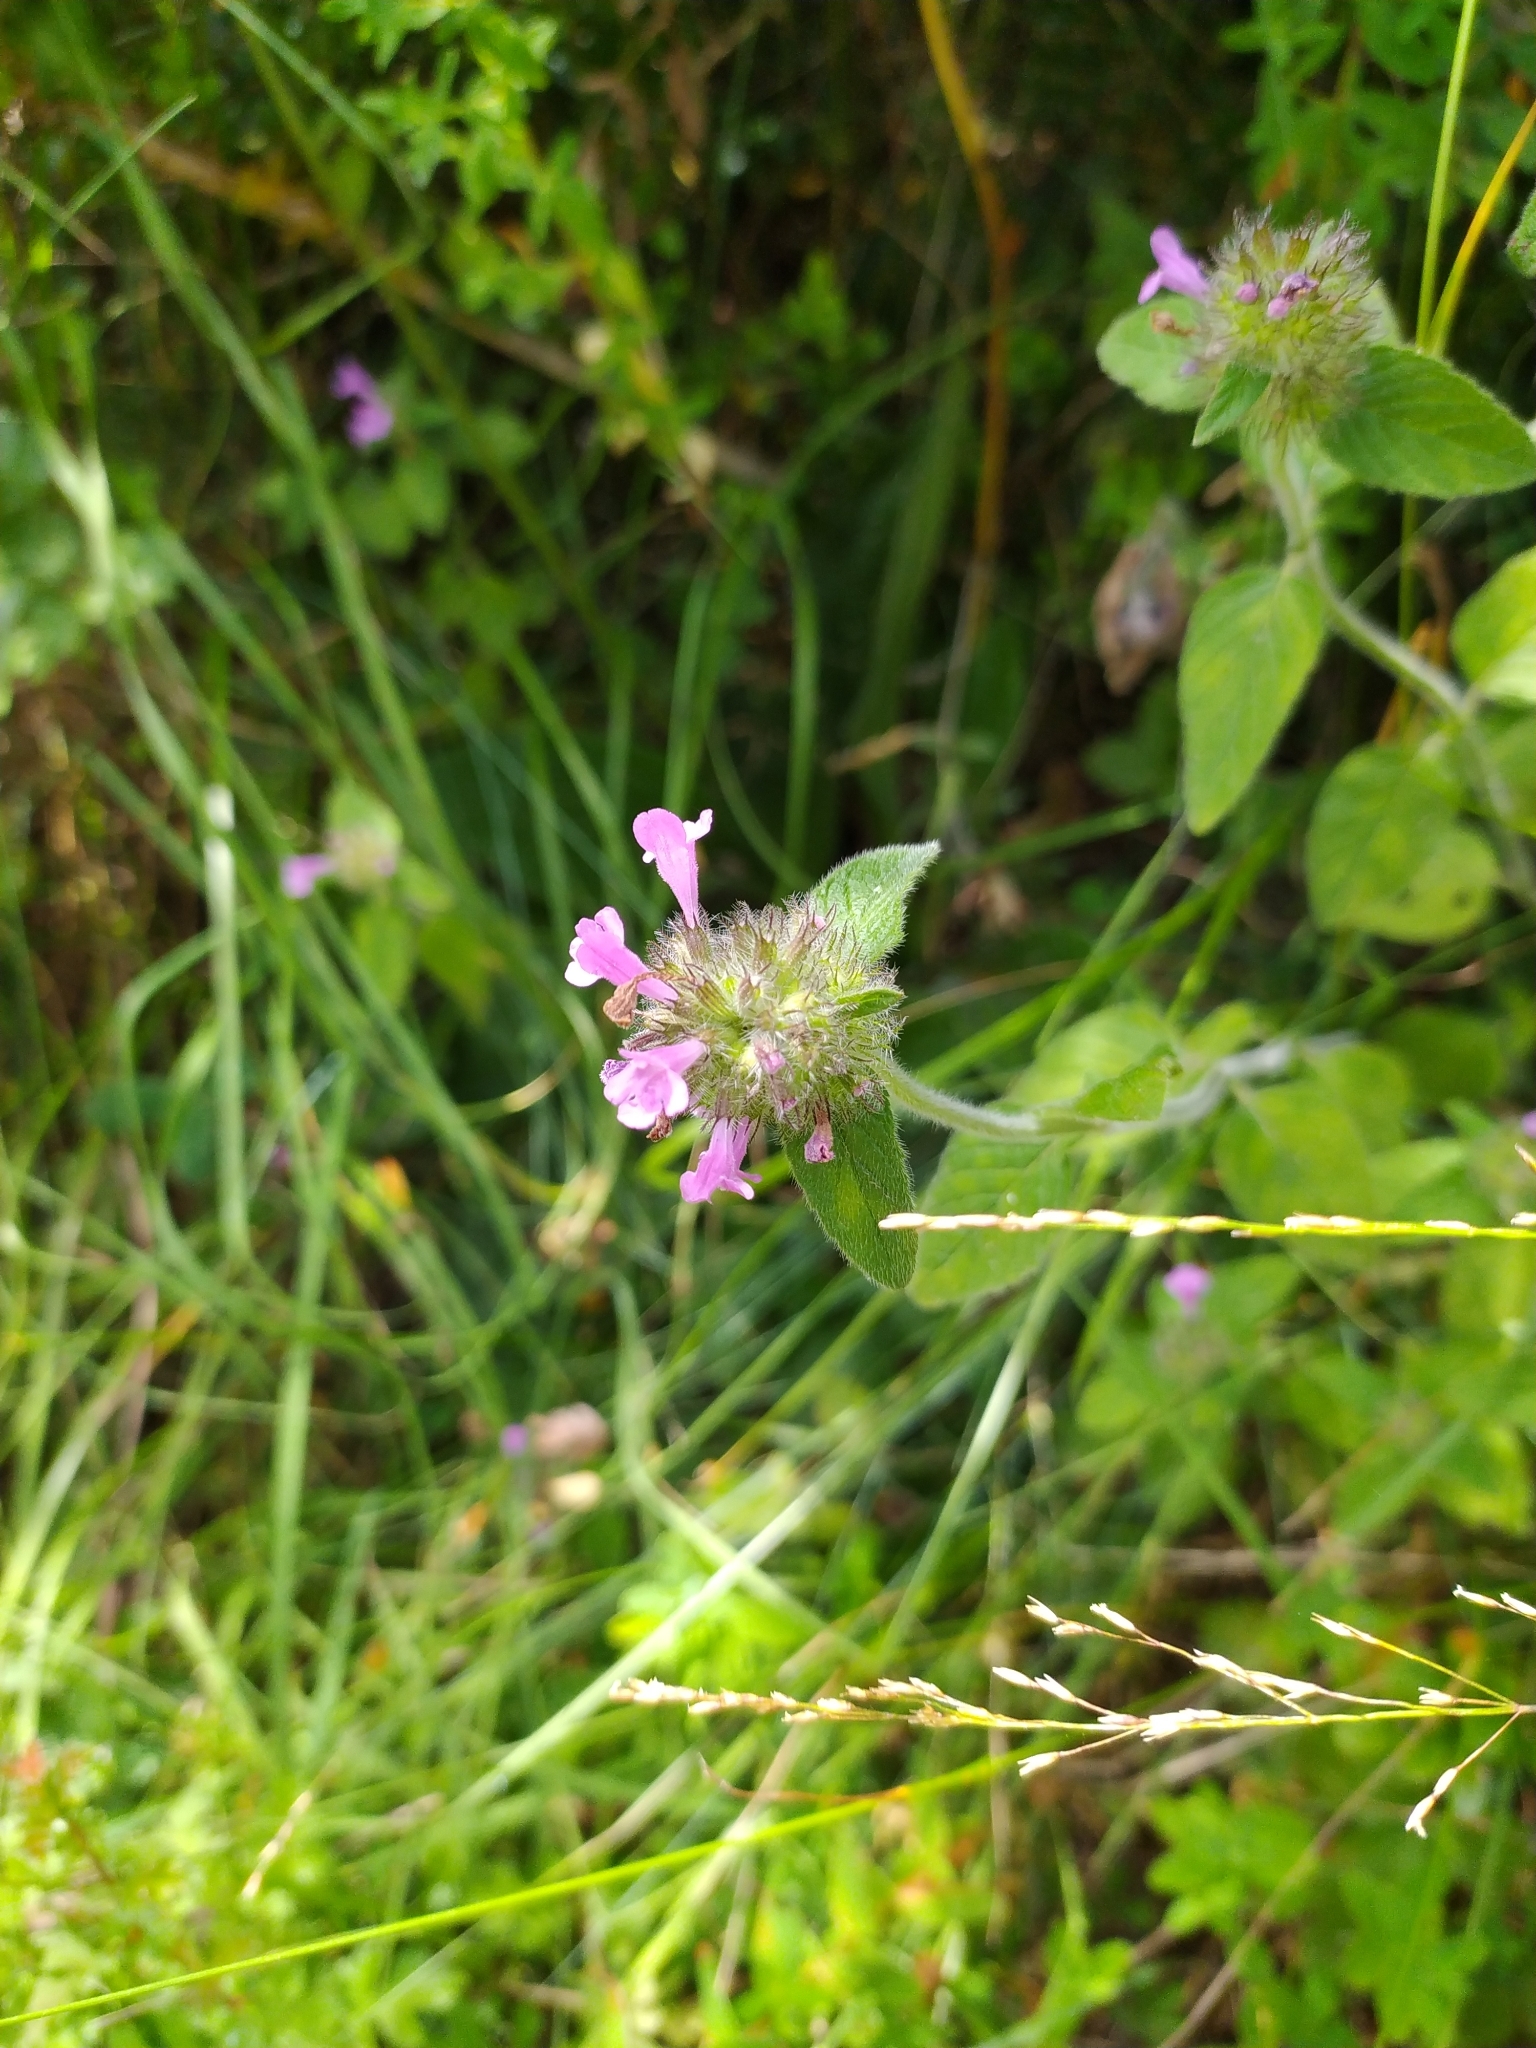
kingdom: Plantae
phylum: Tracheophyta
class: Magnoliopsida
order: Lamiales
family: Lamiaceae
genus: Clinopodium
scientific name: Clinopodium vulgare
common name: Wild basil
